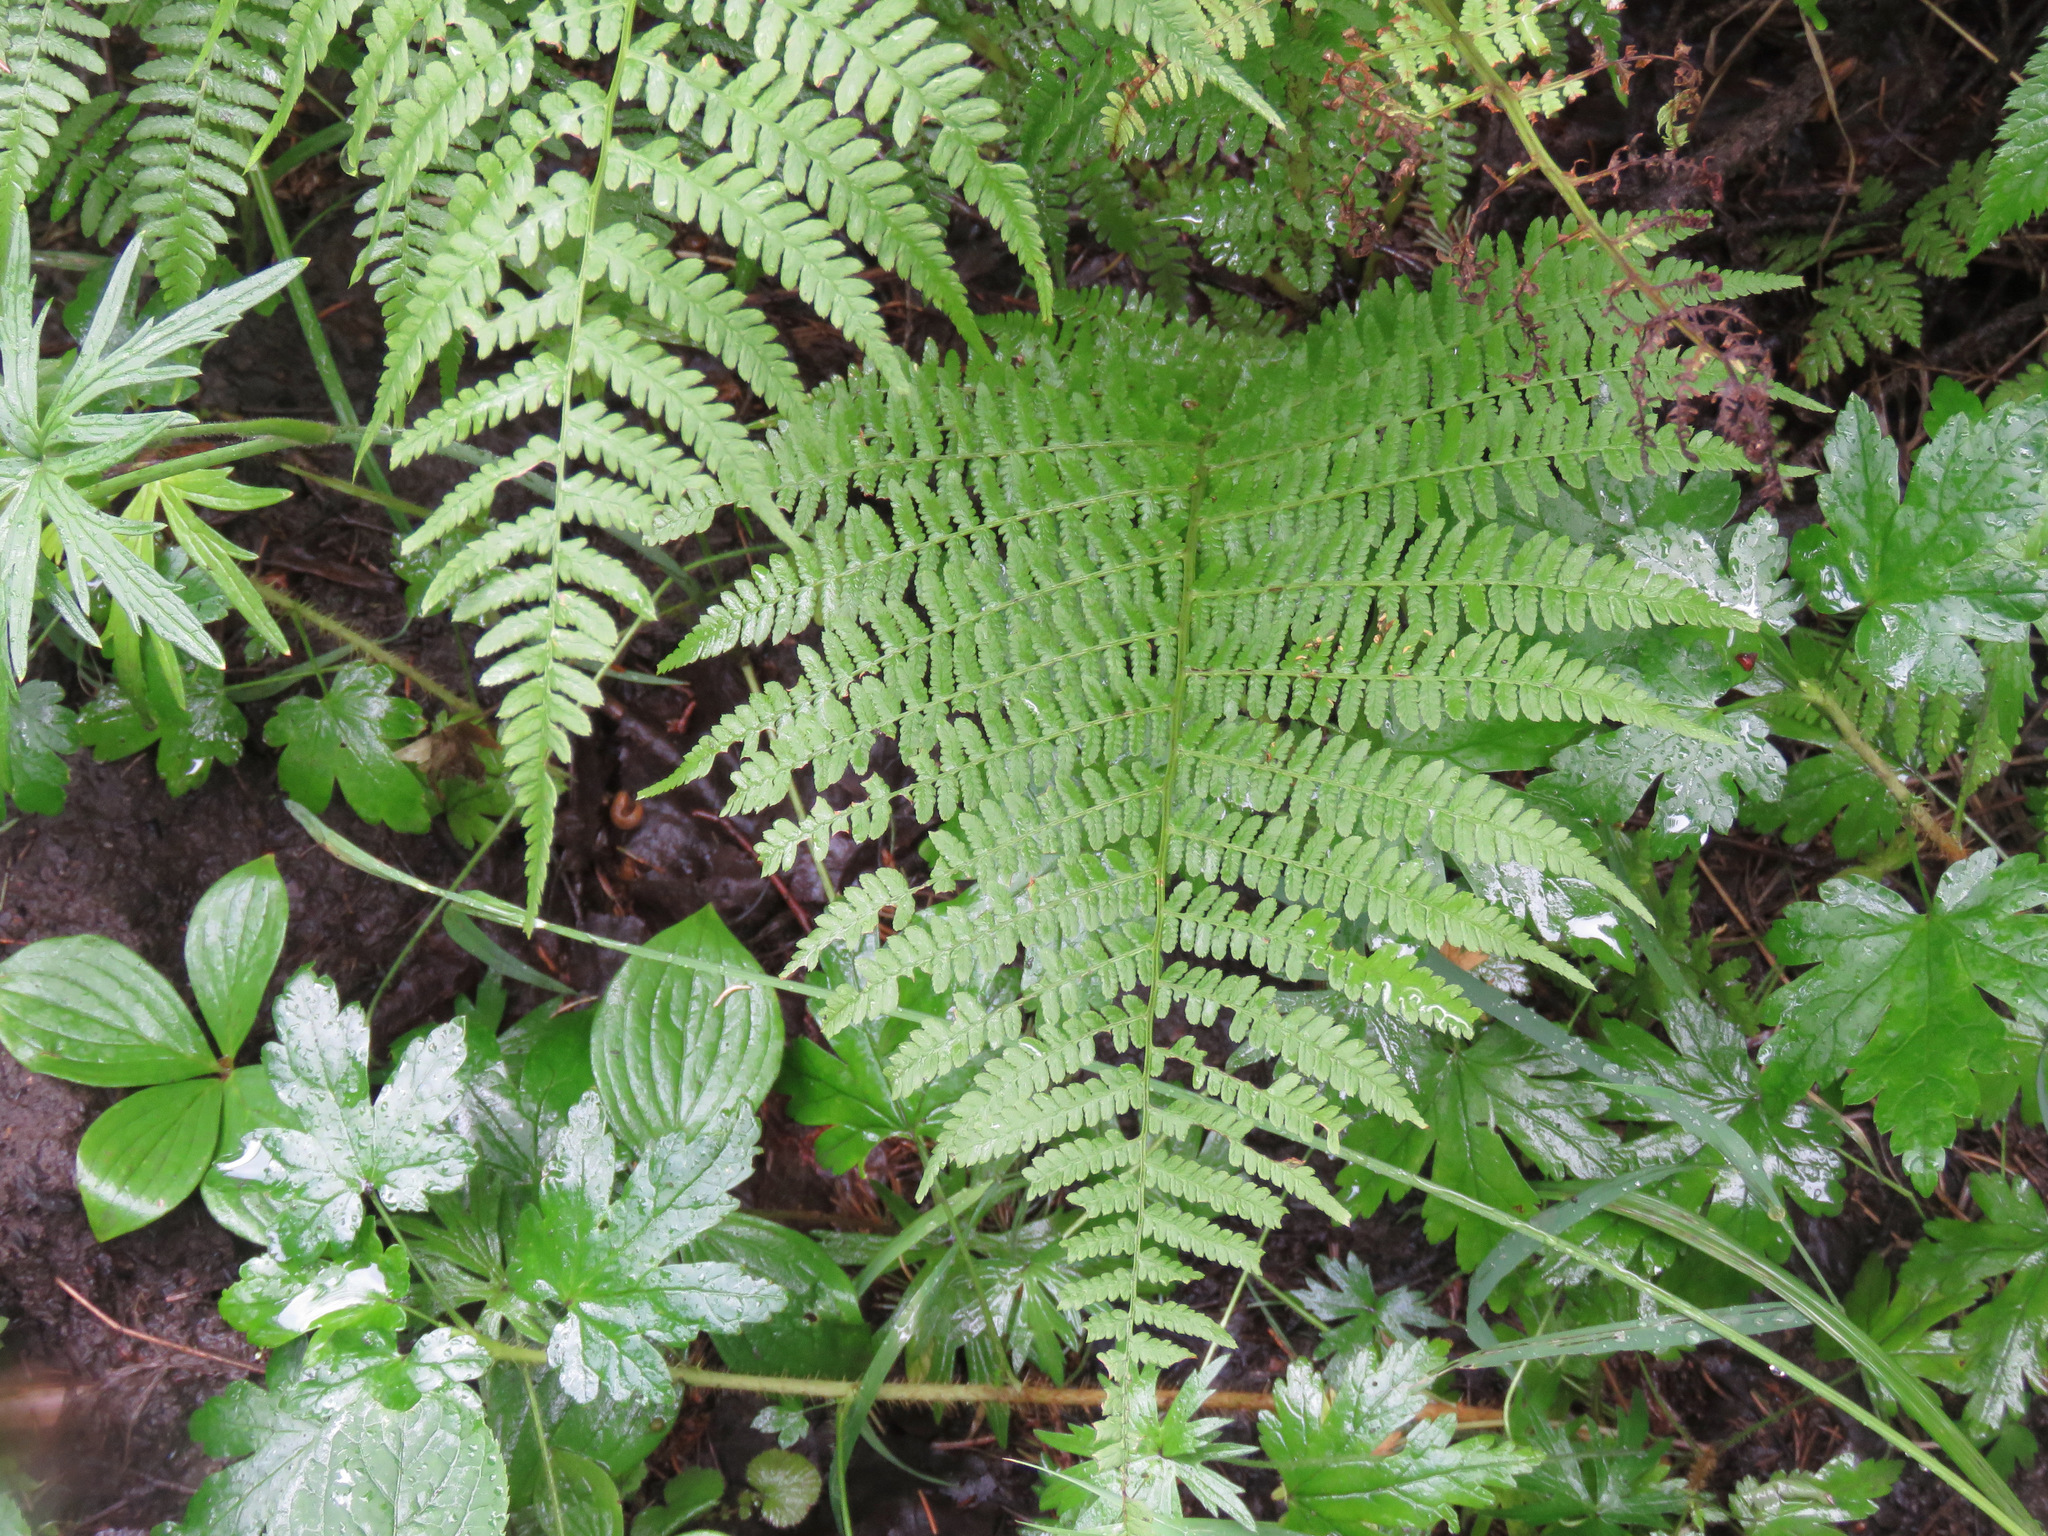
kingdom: Plantae
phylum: Tracheophyta
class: Polypodiopsida
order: Polypodiales
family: Athyriaceae
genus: Athyrium
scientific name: Athyrium filix-femina
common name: Lady fern
